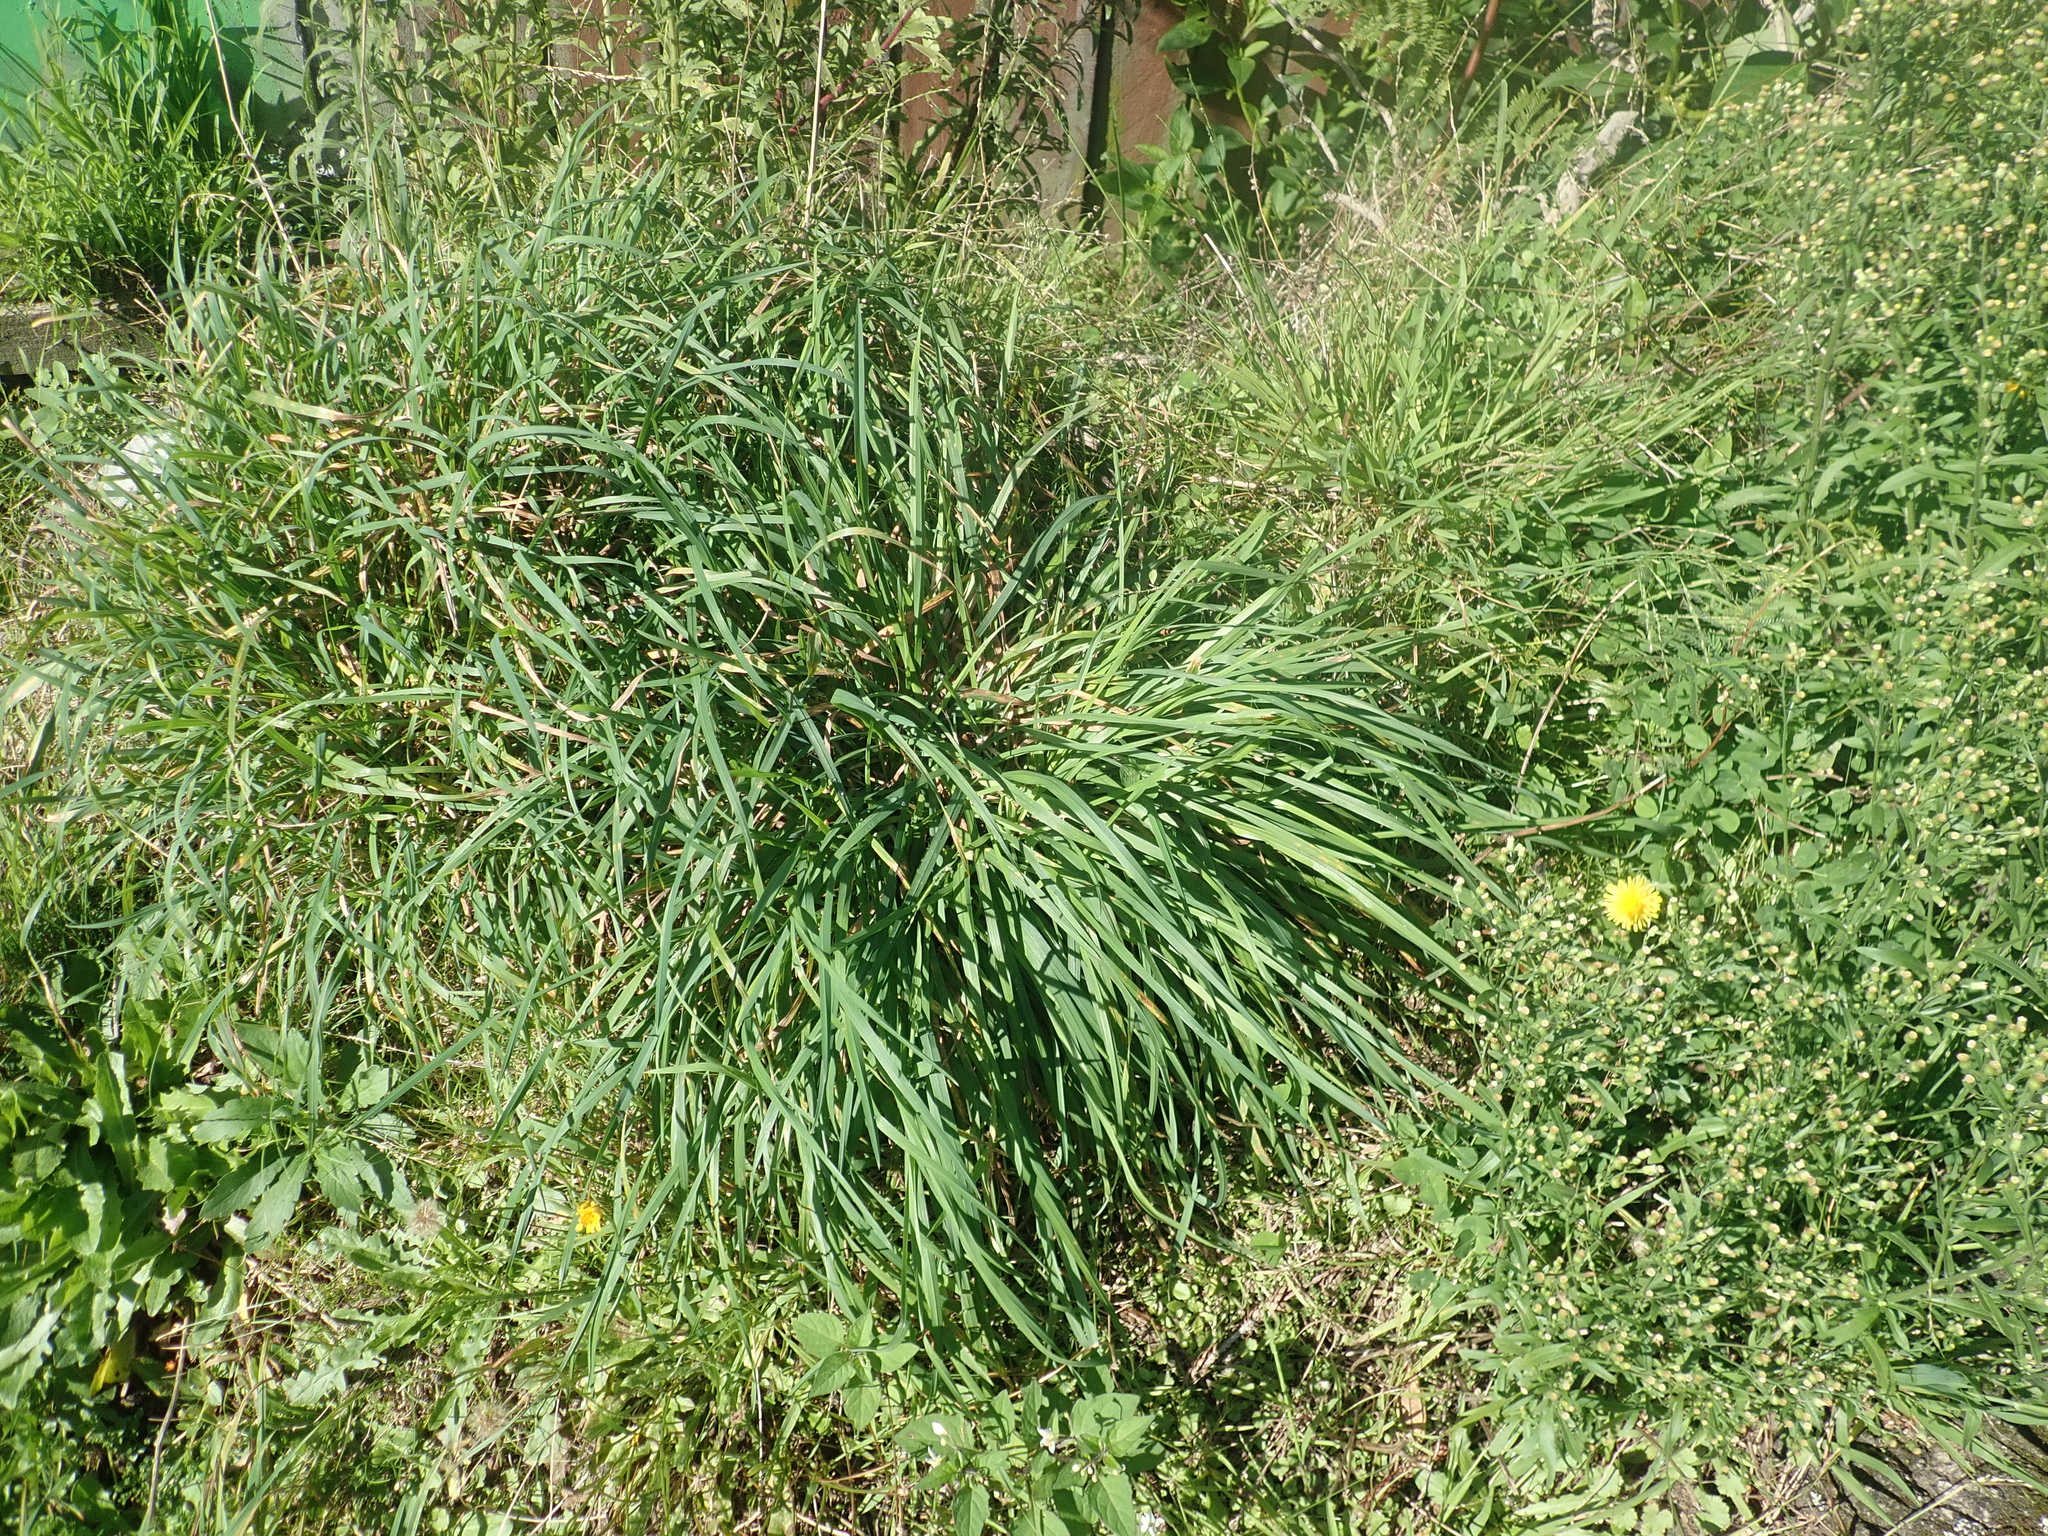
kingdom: Plantae
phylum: Tracheophyta
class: Liliopsida
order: Poales
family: Poaceae
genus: Dactylis
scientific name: Dactylis glomerata
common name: Orchardgrass
